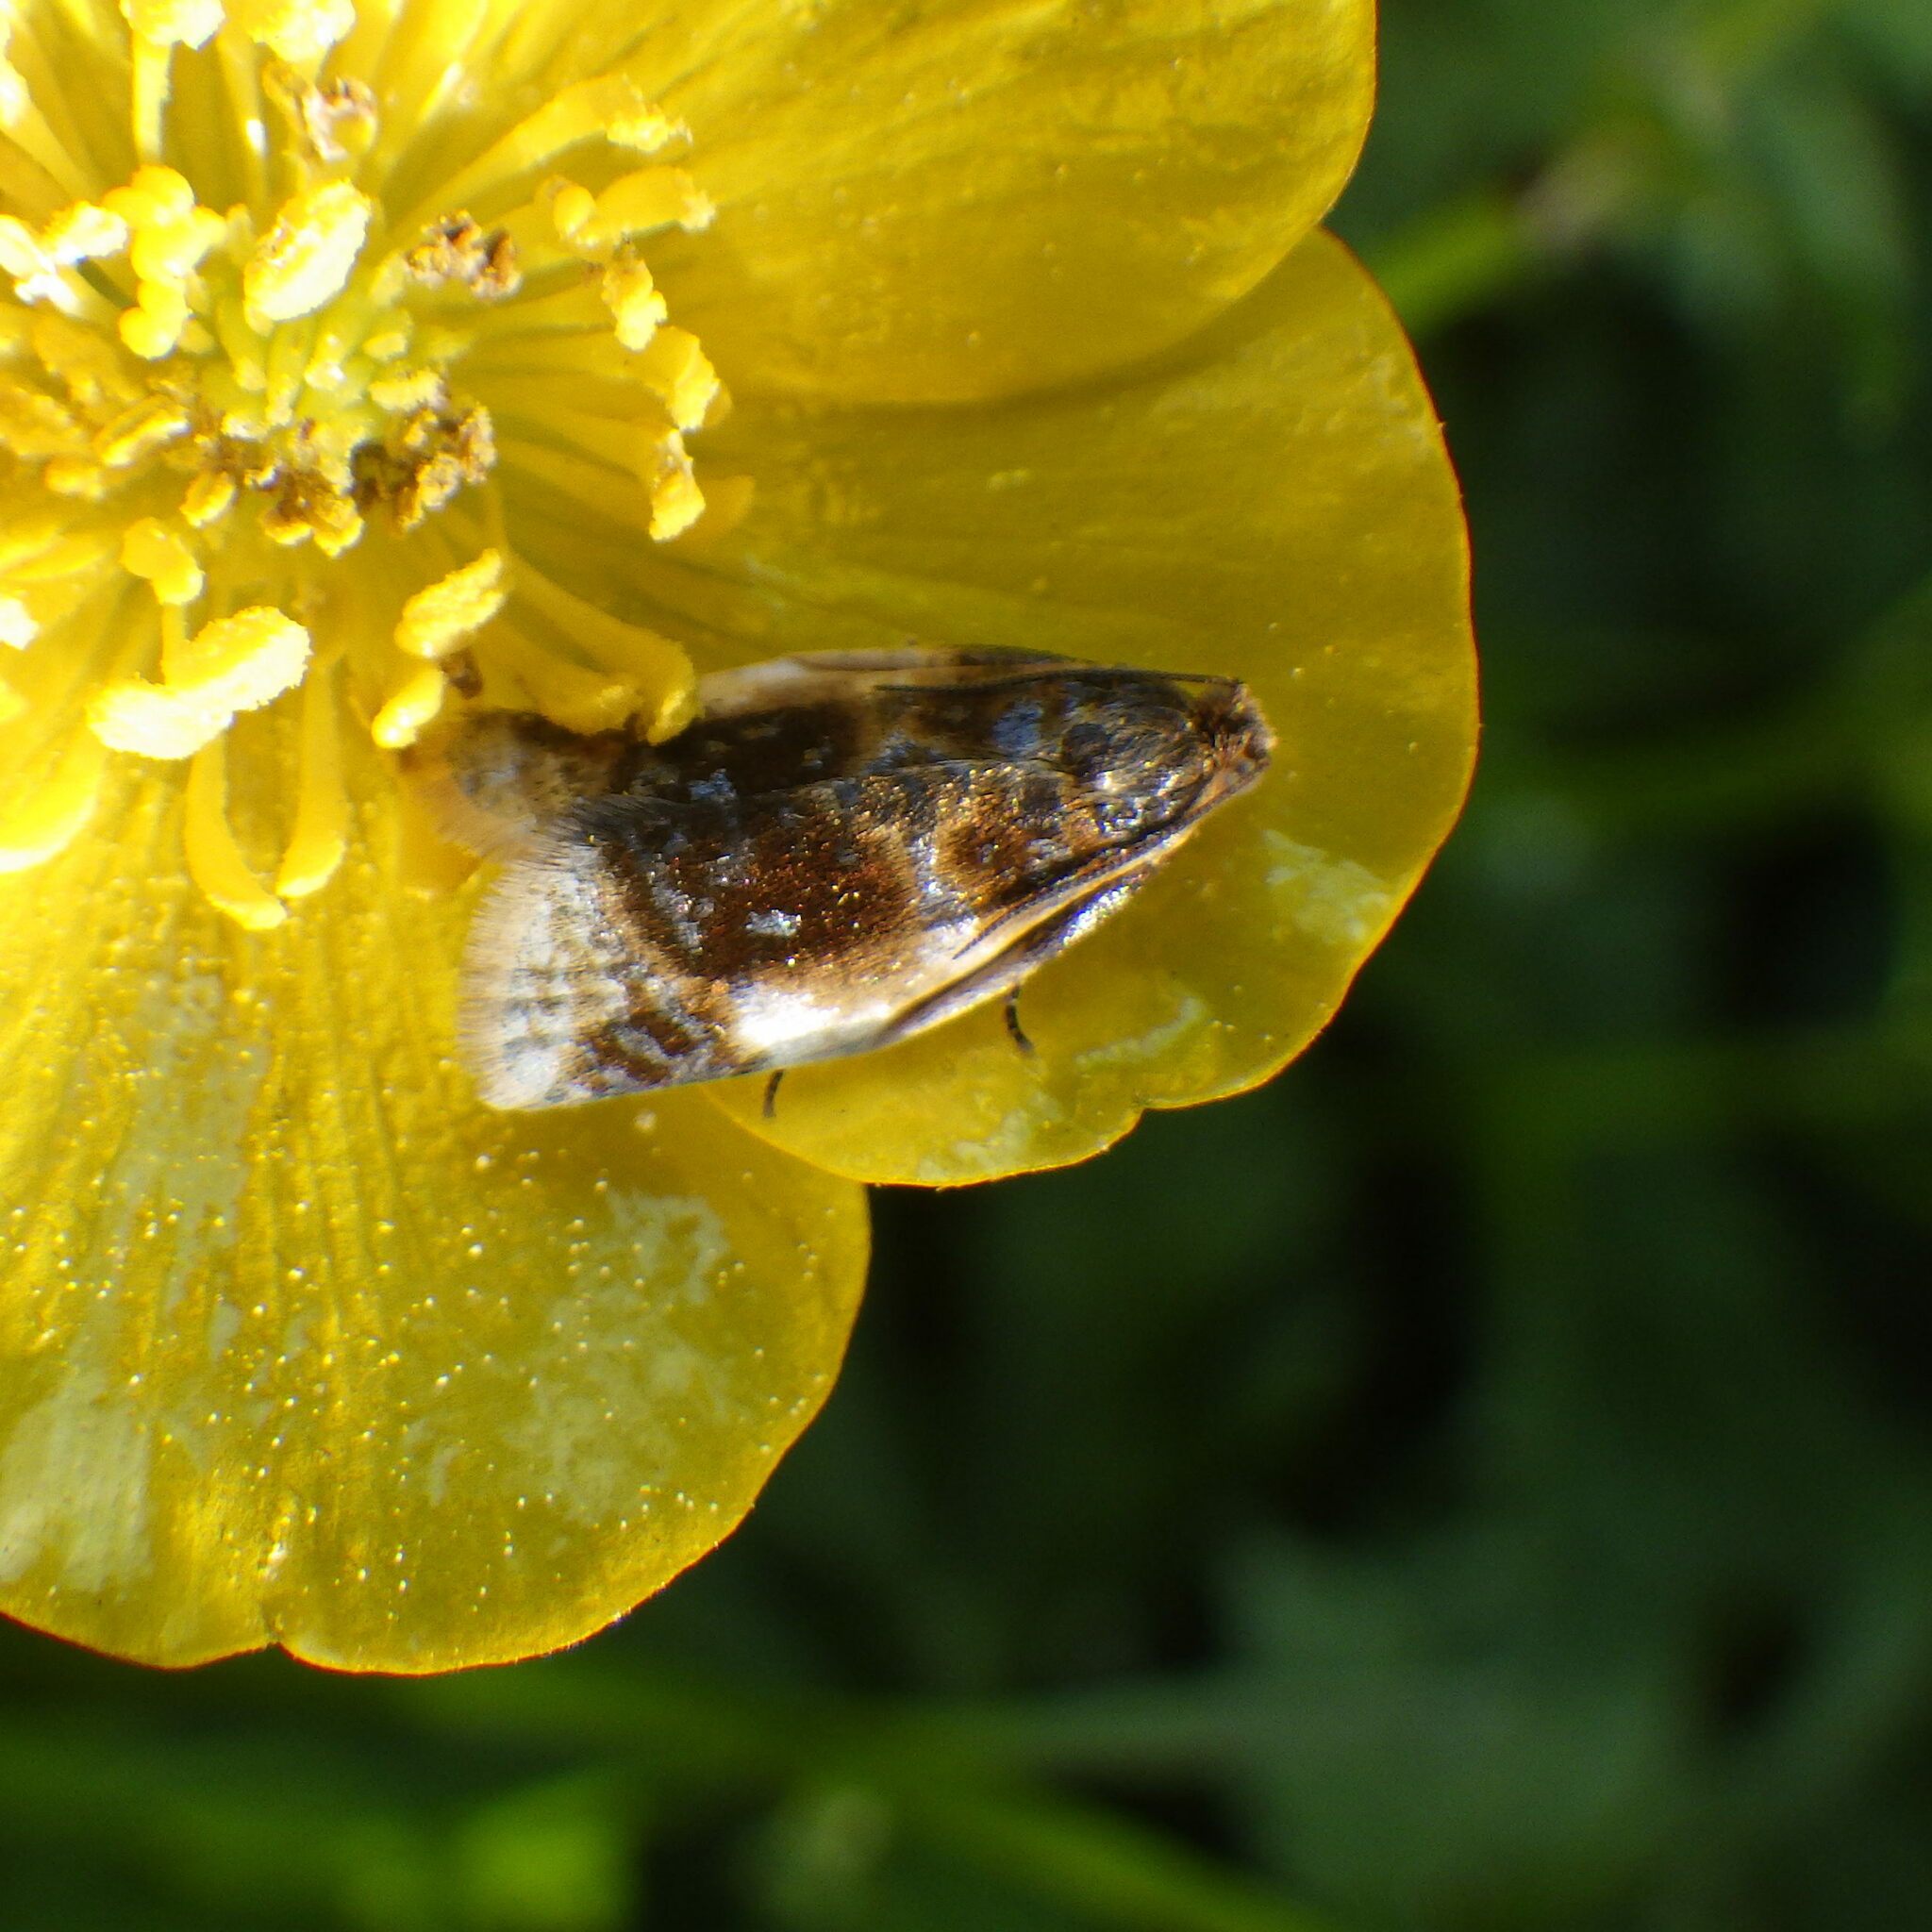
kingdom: Animalia
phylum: Arthropoda
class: Insecta
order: Lepidoptera
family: Tortricidae
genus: Clepsis
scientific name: Clepsis melaleucanus
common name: American apple tortrix
